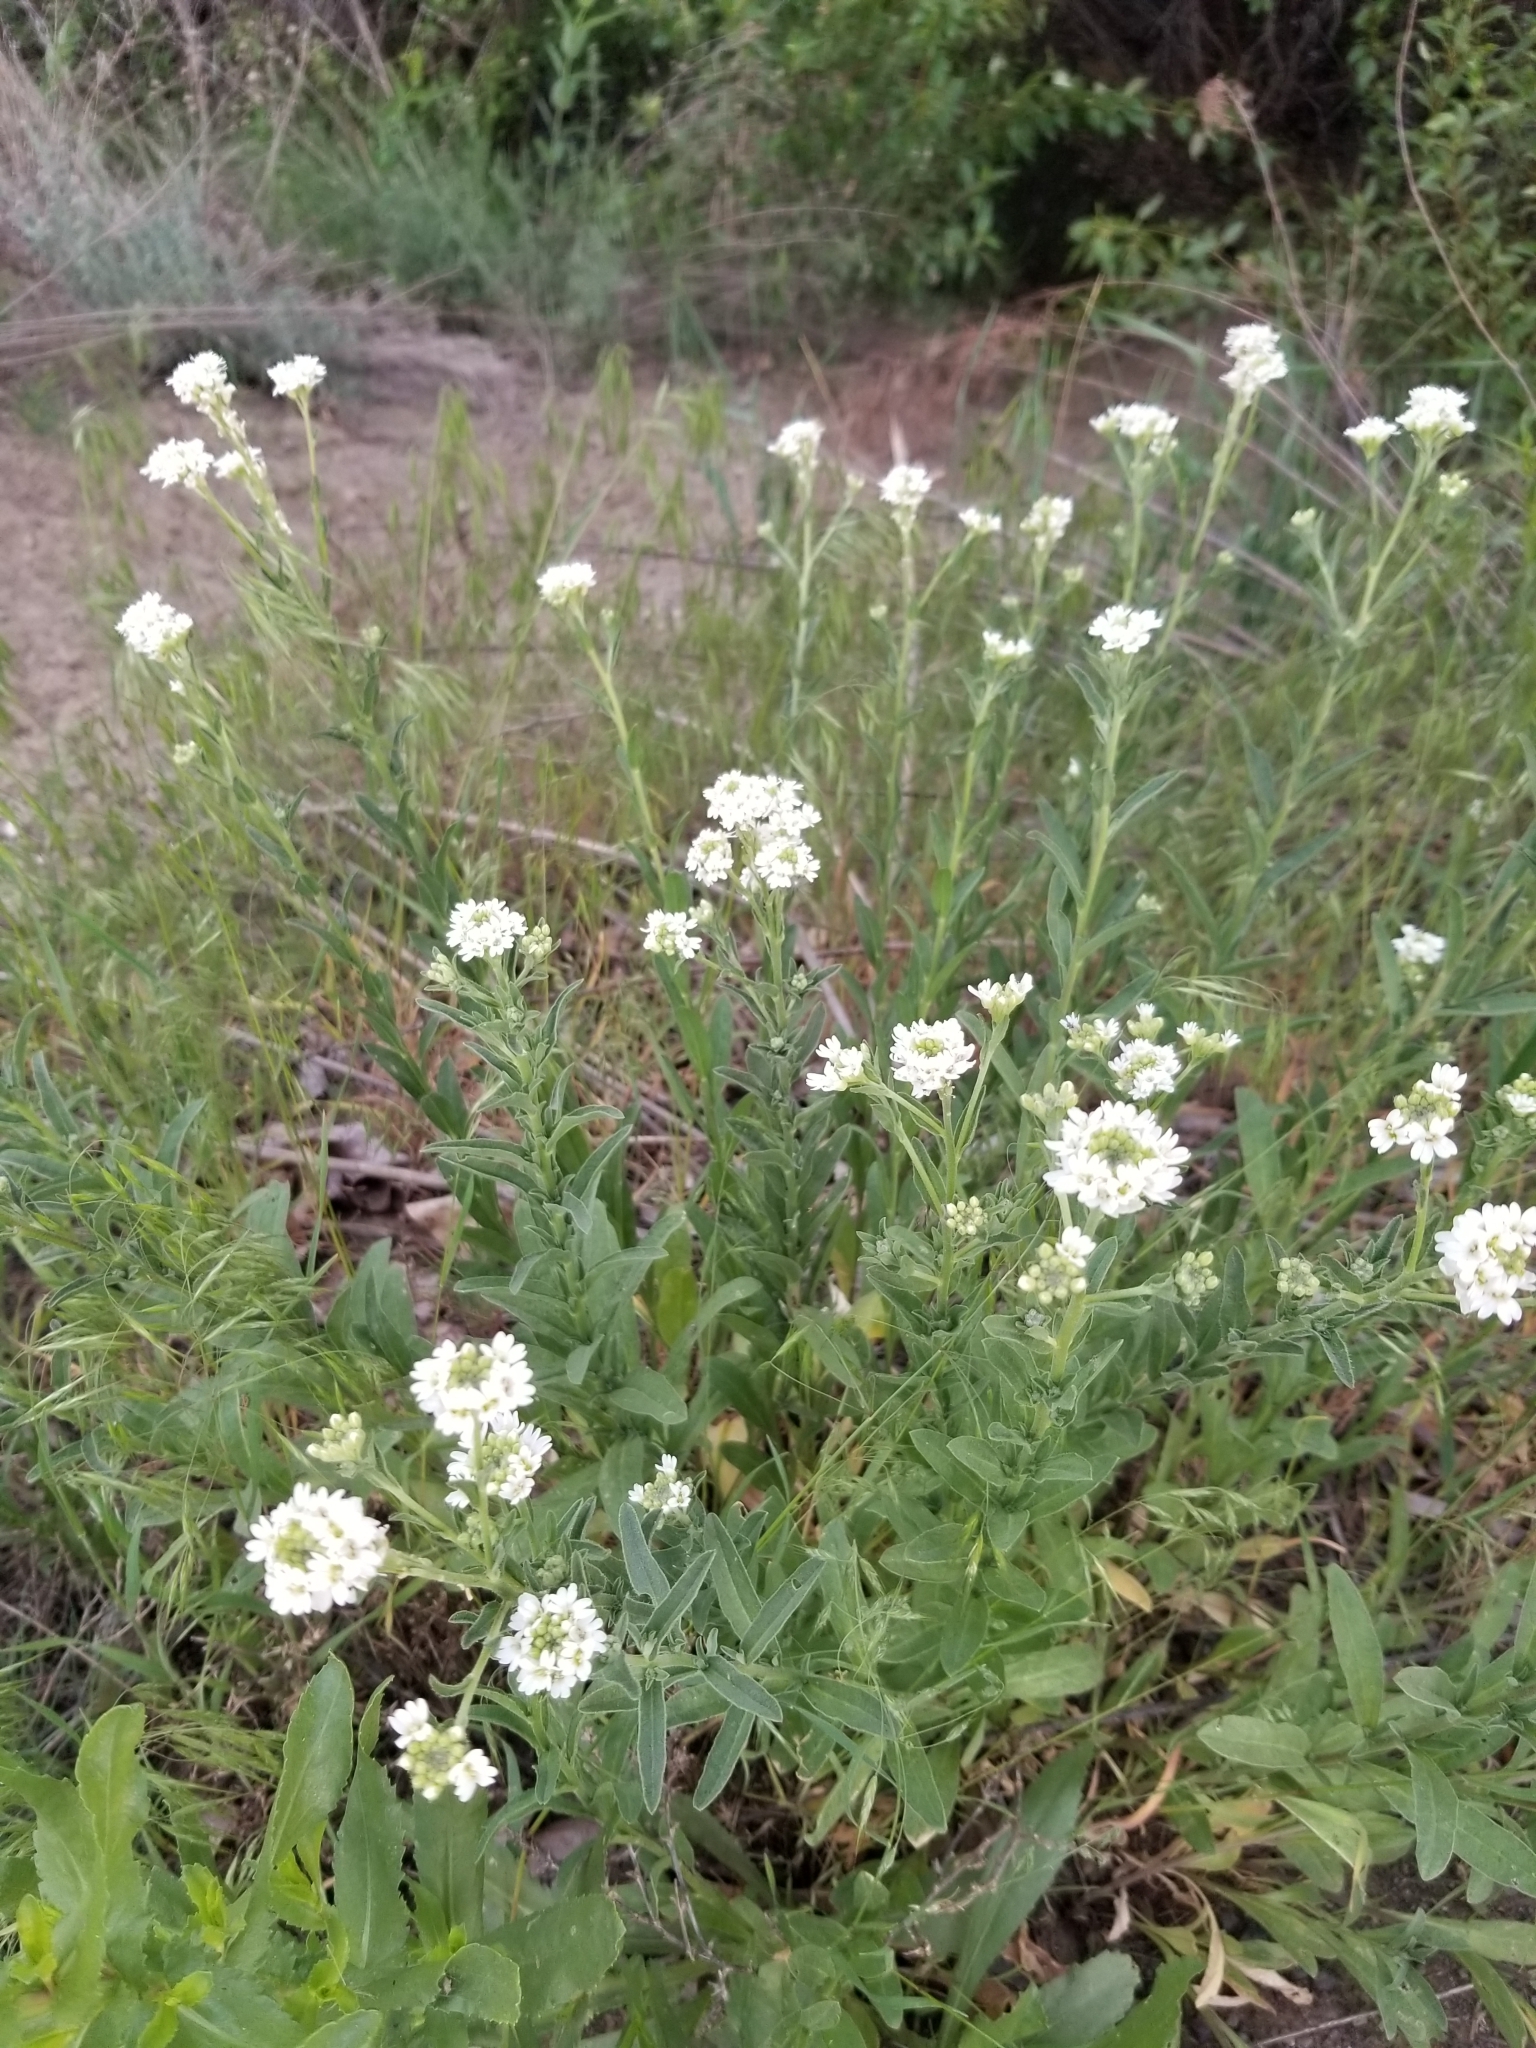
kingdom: Plantae
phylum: Tracheophyta
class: Magnoliopsida
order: Brassicales
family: Brassicaceae
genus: Berteroa
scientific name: Berteroa incana
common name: Hoary alison
